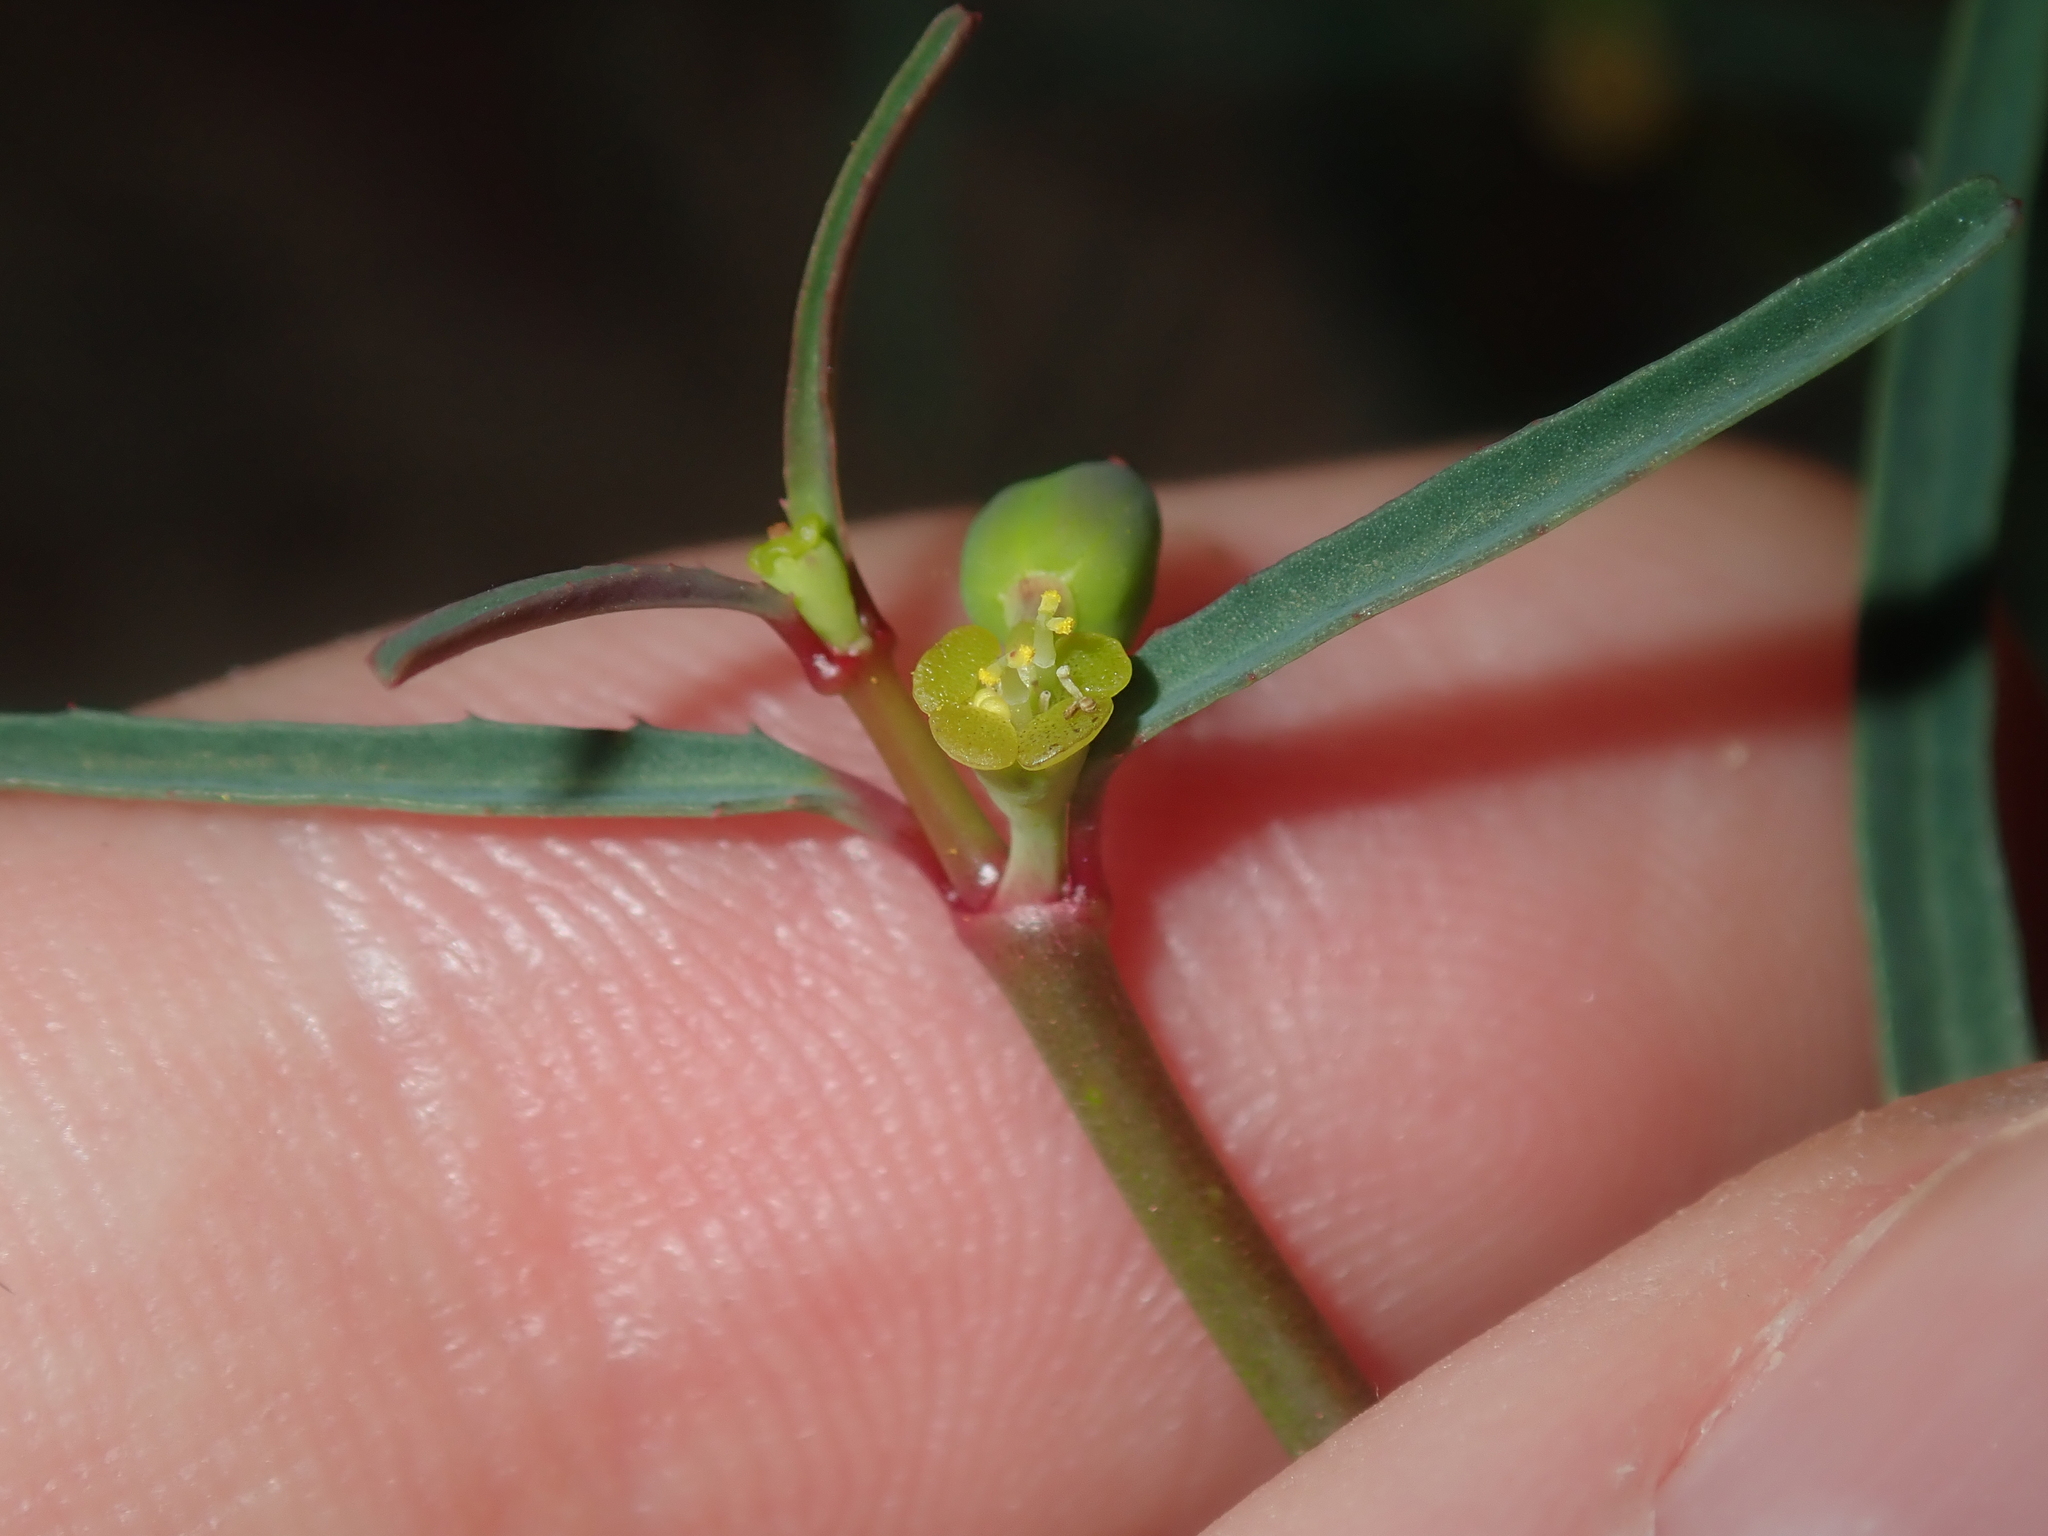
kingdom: Plantae
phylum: Tracheophyta
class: Magnoliopsida
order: Malpighiales
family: Euphorbiaceae
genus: Euphorbia
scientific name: Euphorbia tannensis
